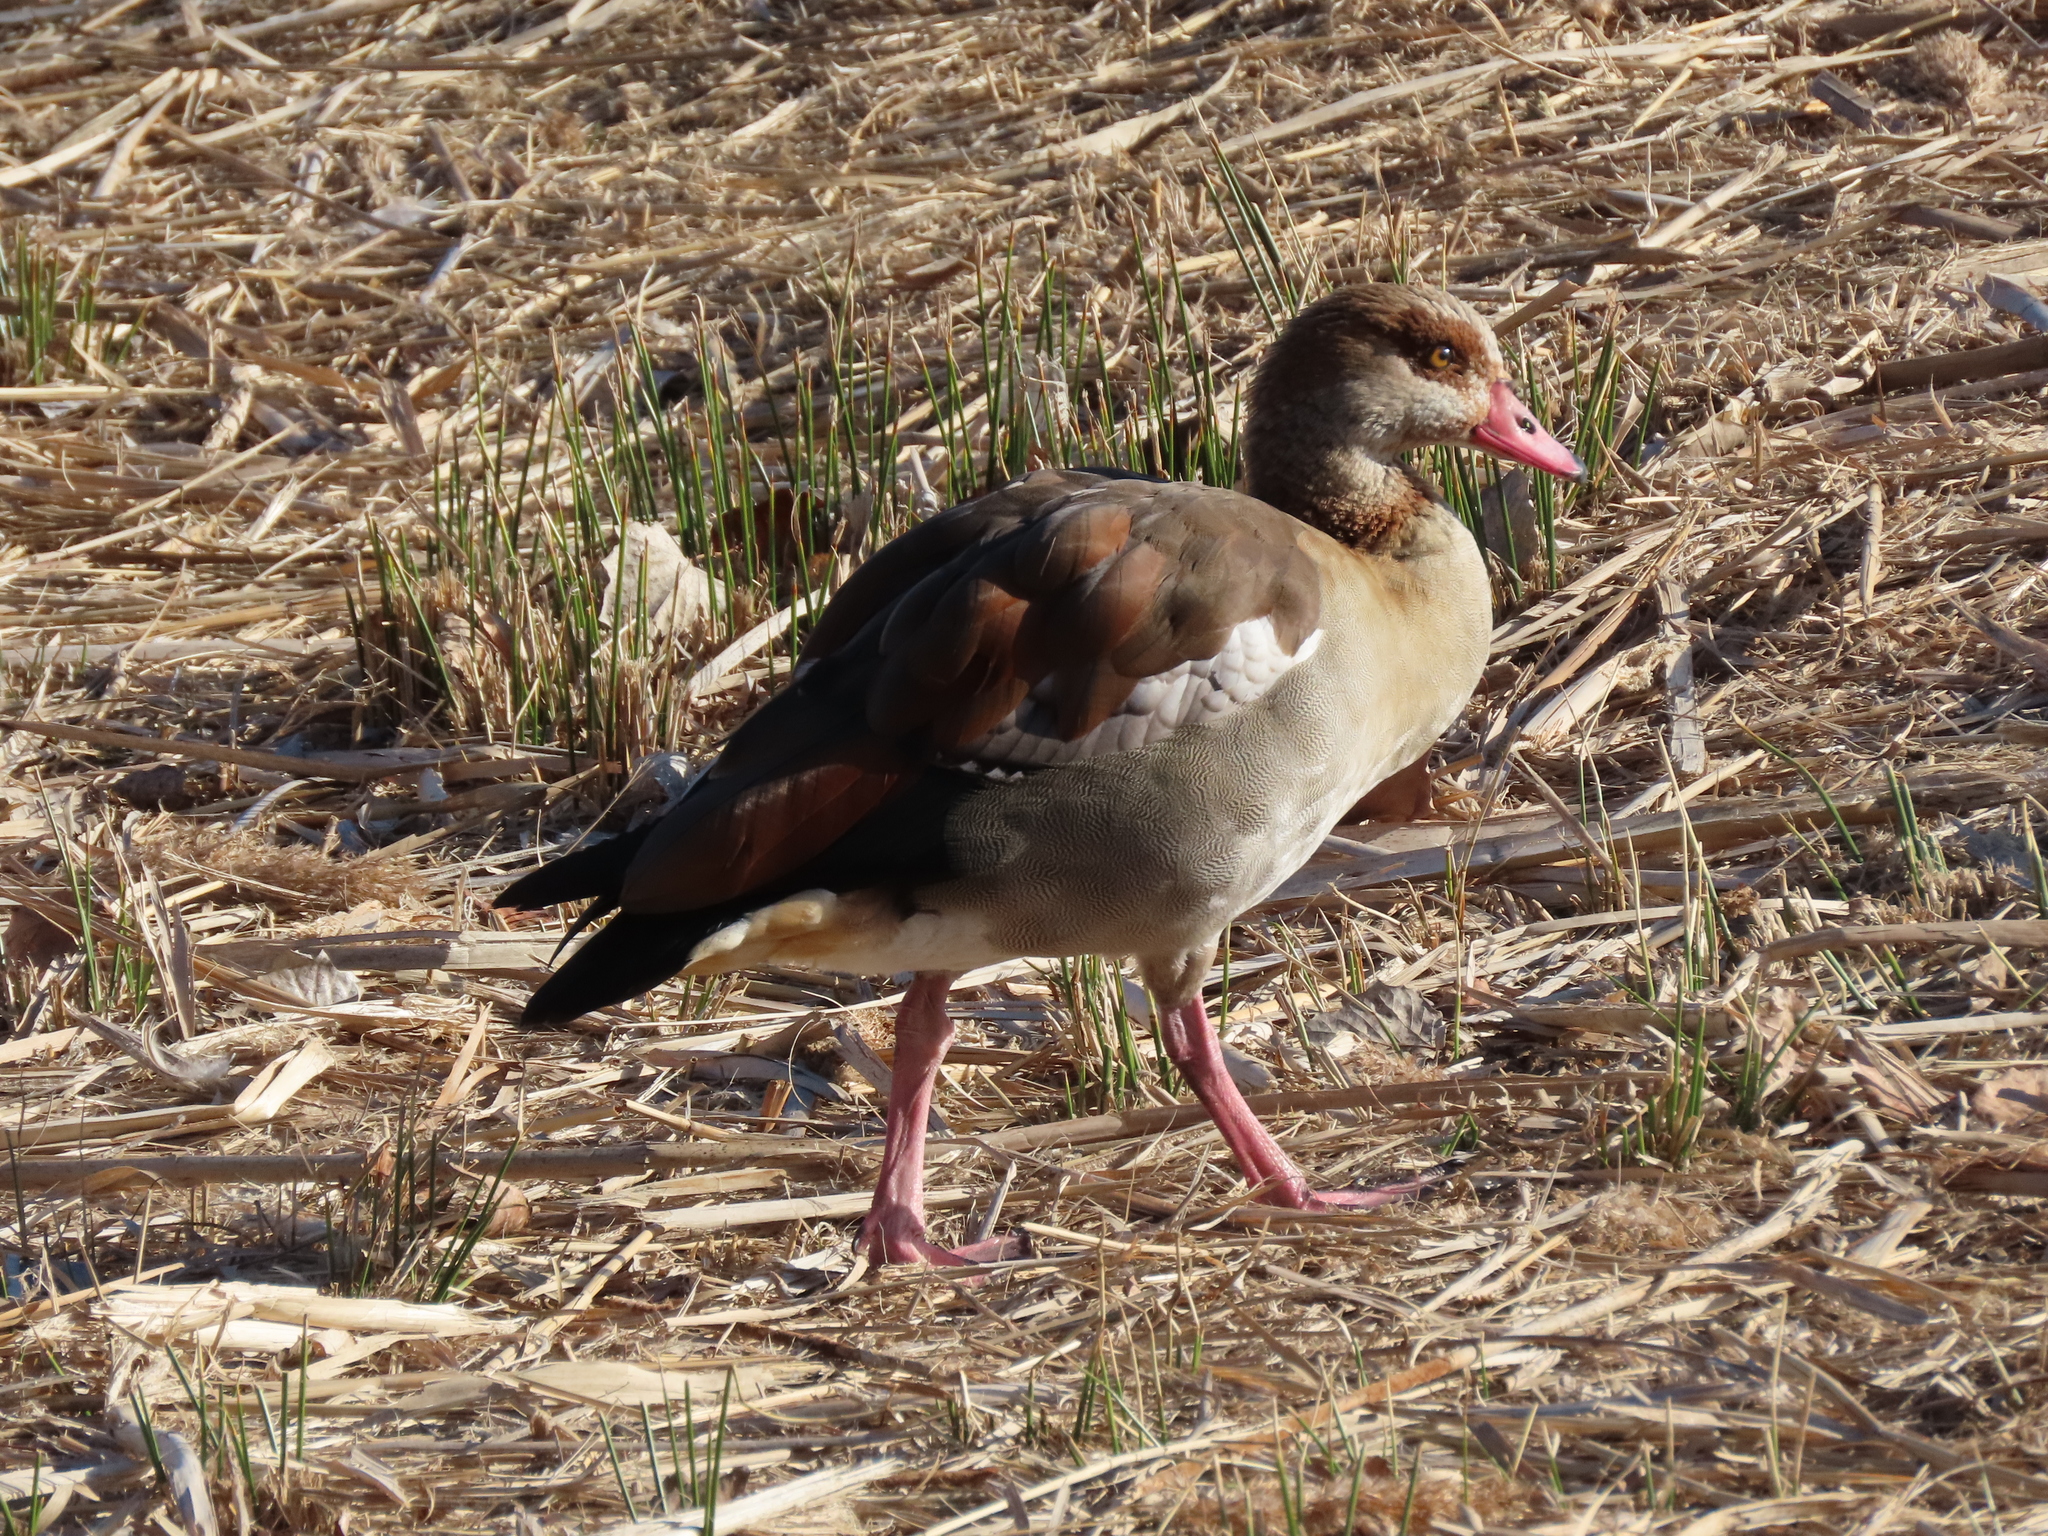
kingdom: Animalia
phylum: Chordata
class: Aves
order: Anseriformes
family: Anatidae
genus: Alopochen
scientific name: Alopochen aegyptiaca
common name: Egyptian goose
